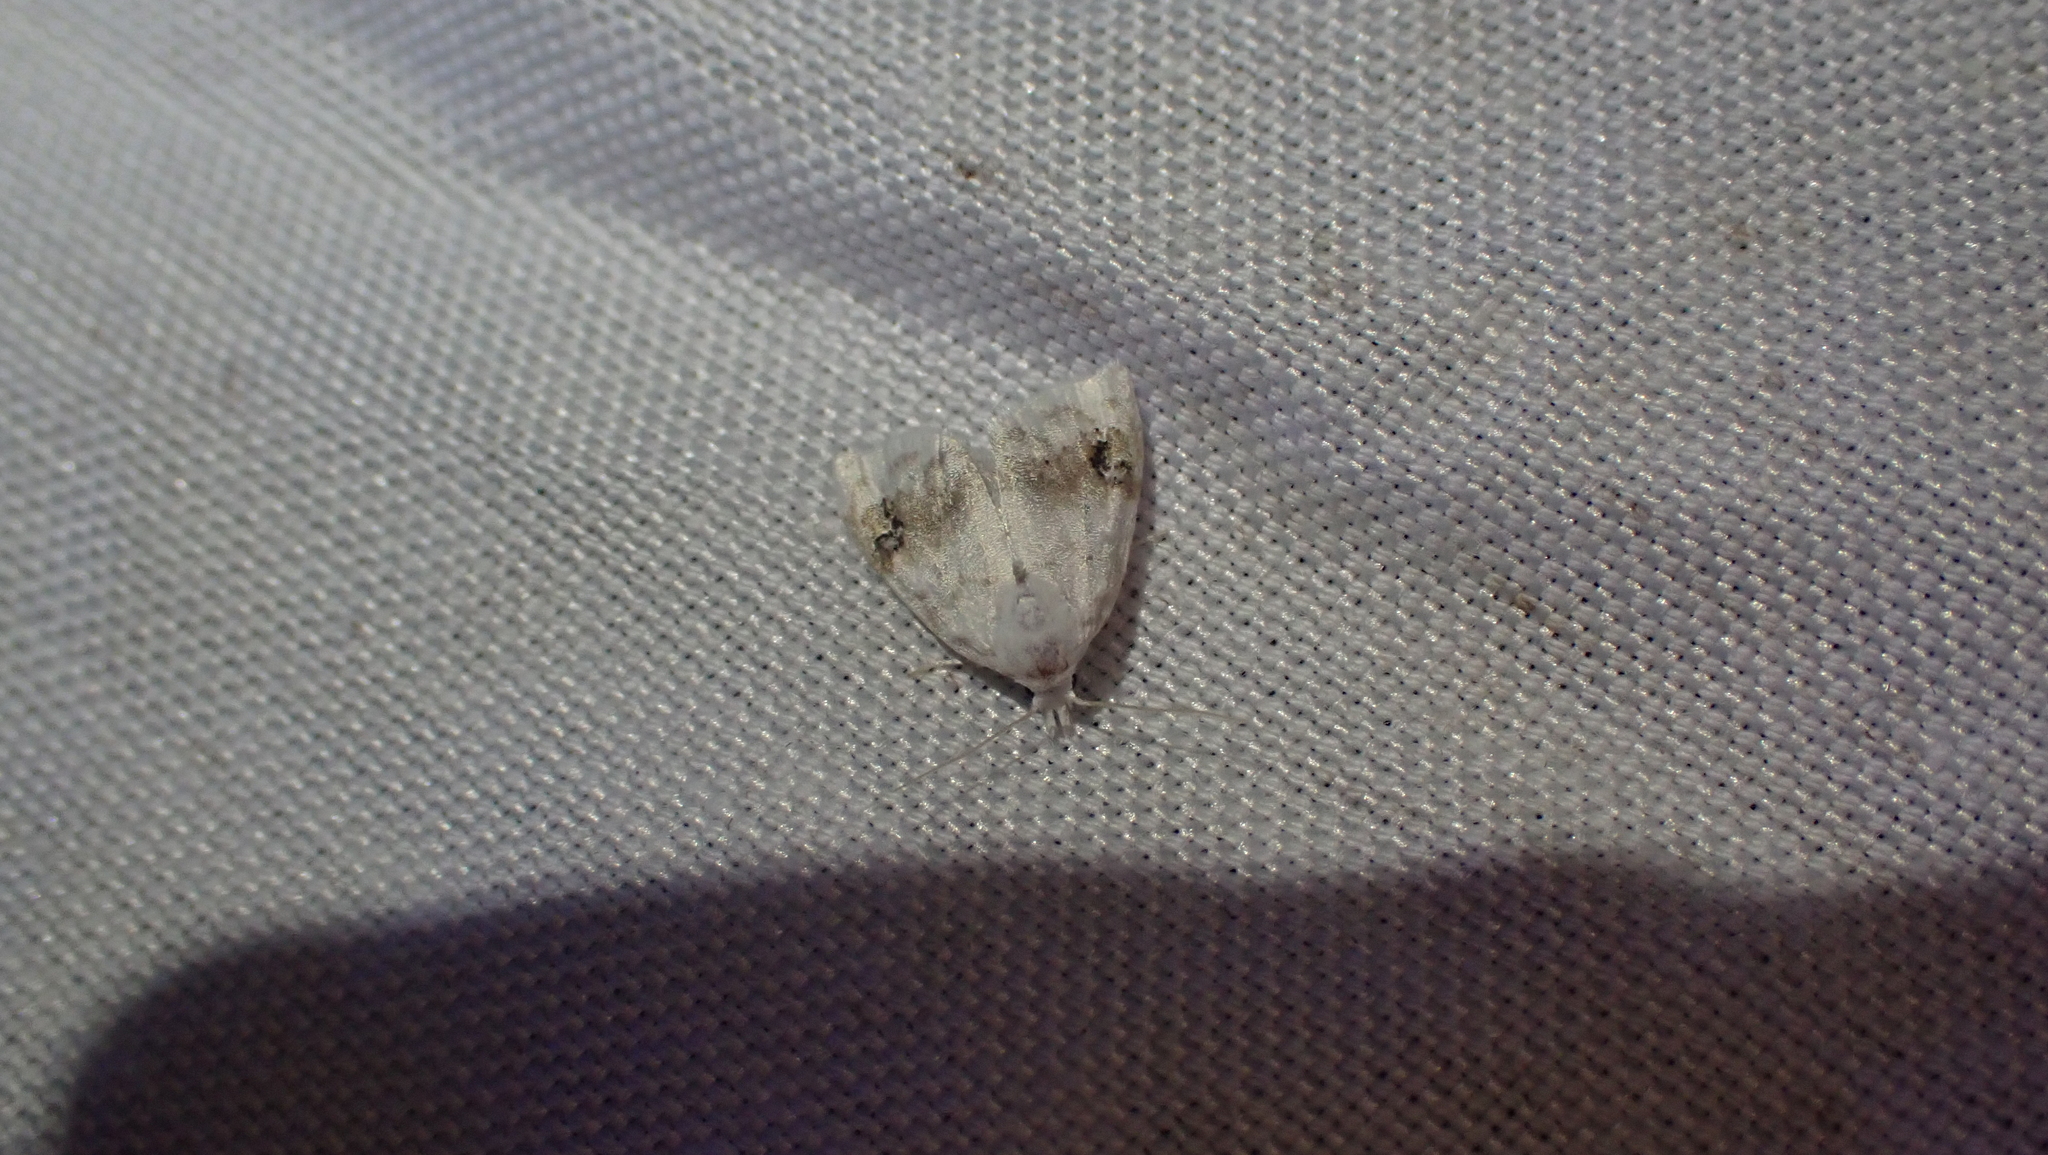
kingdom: Animalia
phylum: Arthropoda
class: Insecta
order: Lepidoptera
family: Nolidae
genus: Nola
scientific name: Nola cilicoides
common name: Blurry-patched nola moth
